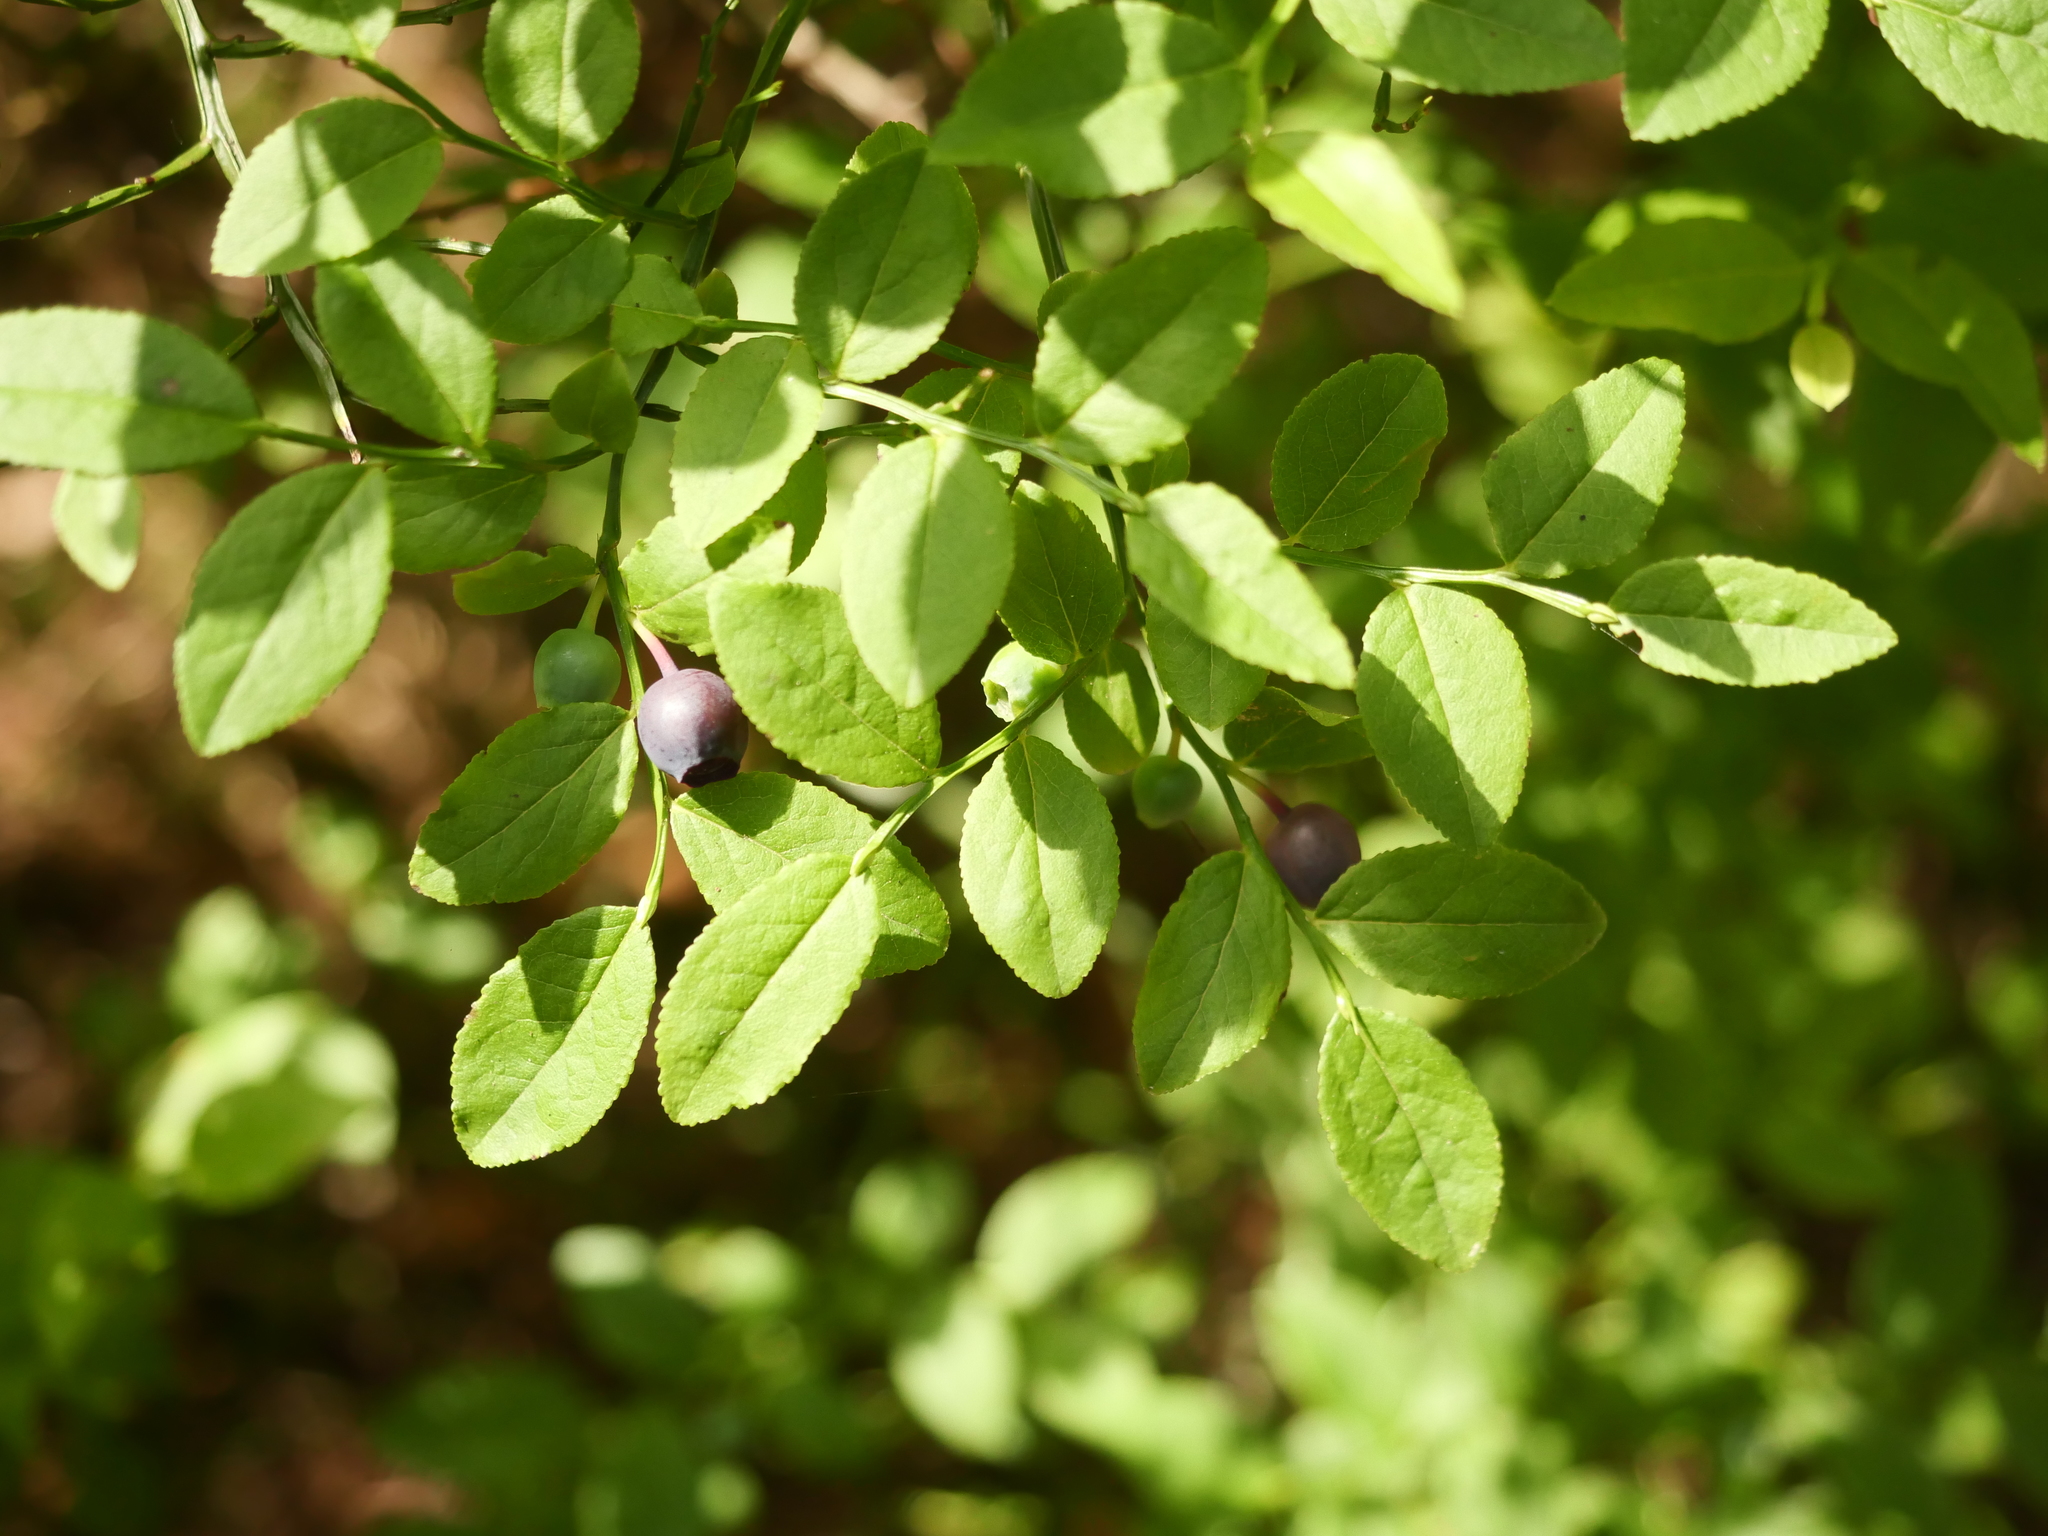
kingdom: Plantae
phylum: Tracheophyta
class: Magnoliopsida
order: Ericales
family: Ericaceae
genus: Vaccinium
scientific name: Vaccinium myrtillus
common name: Bilberry
